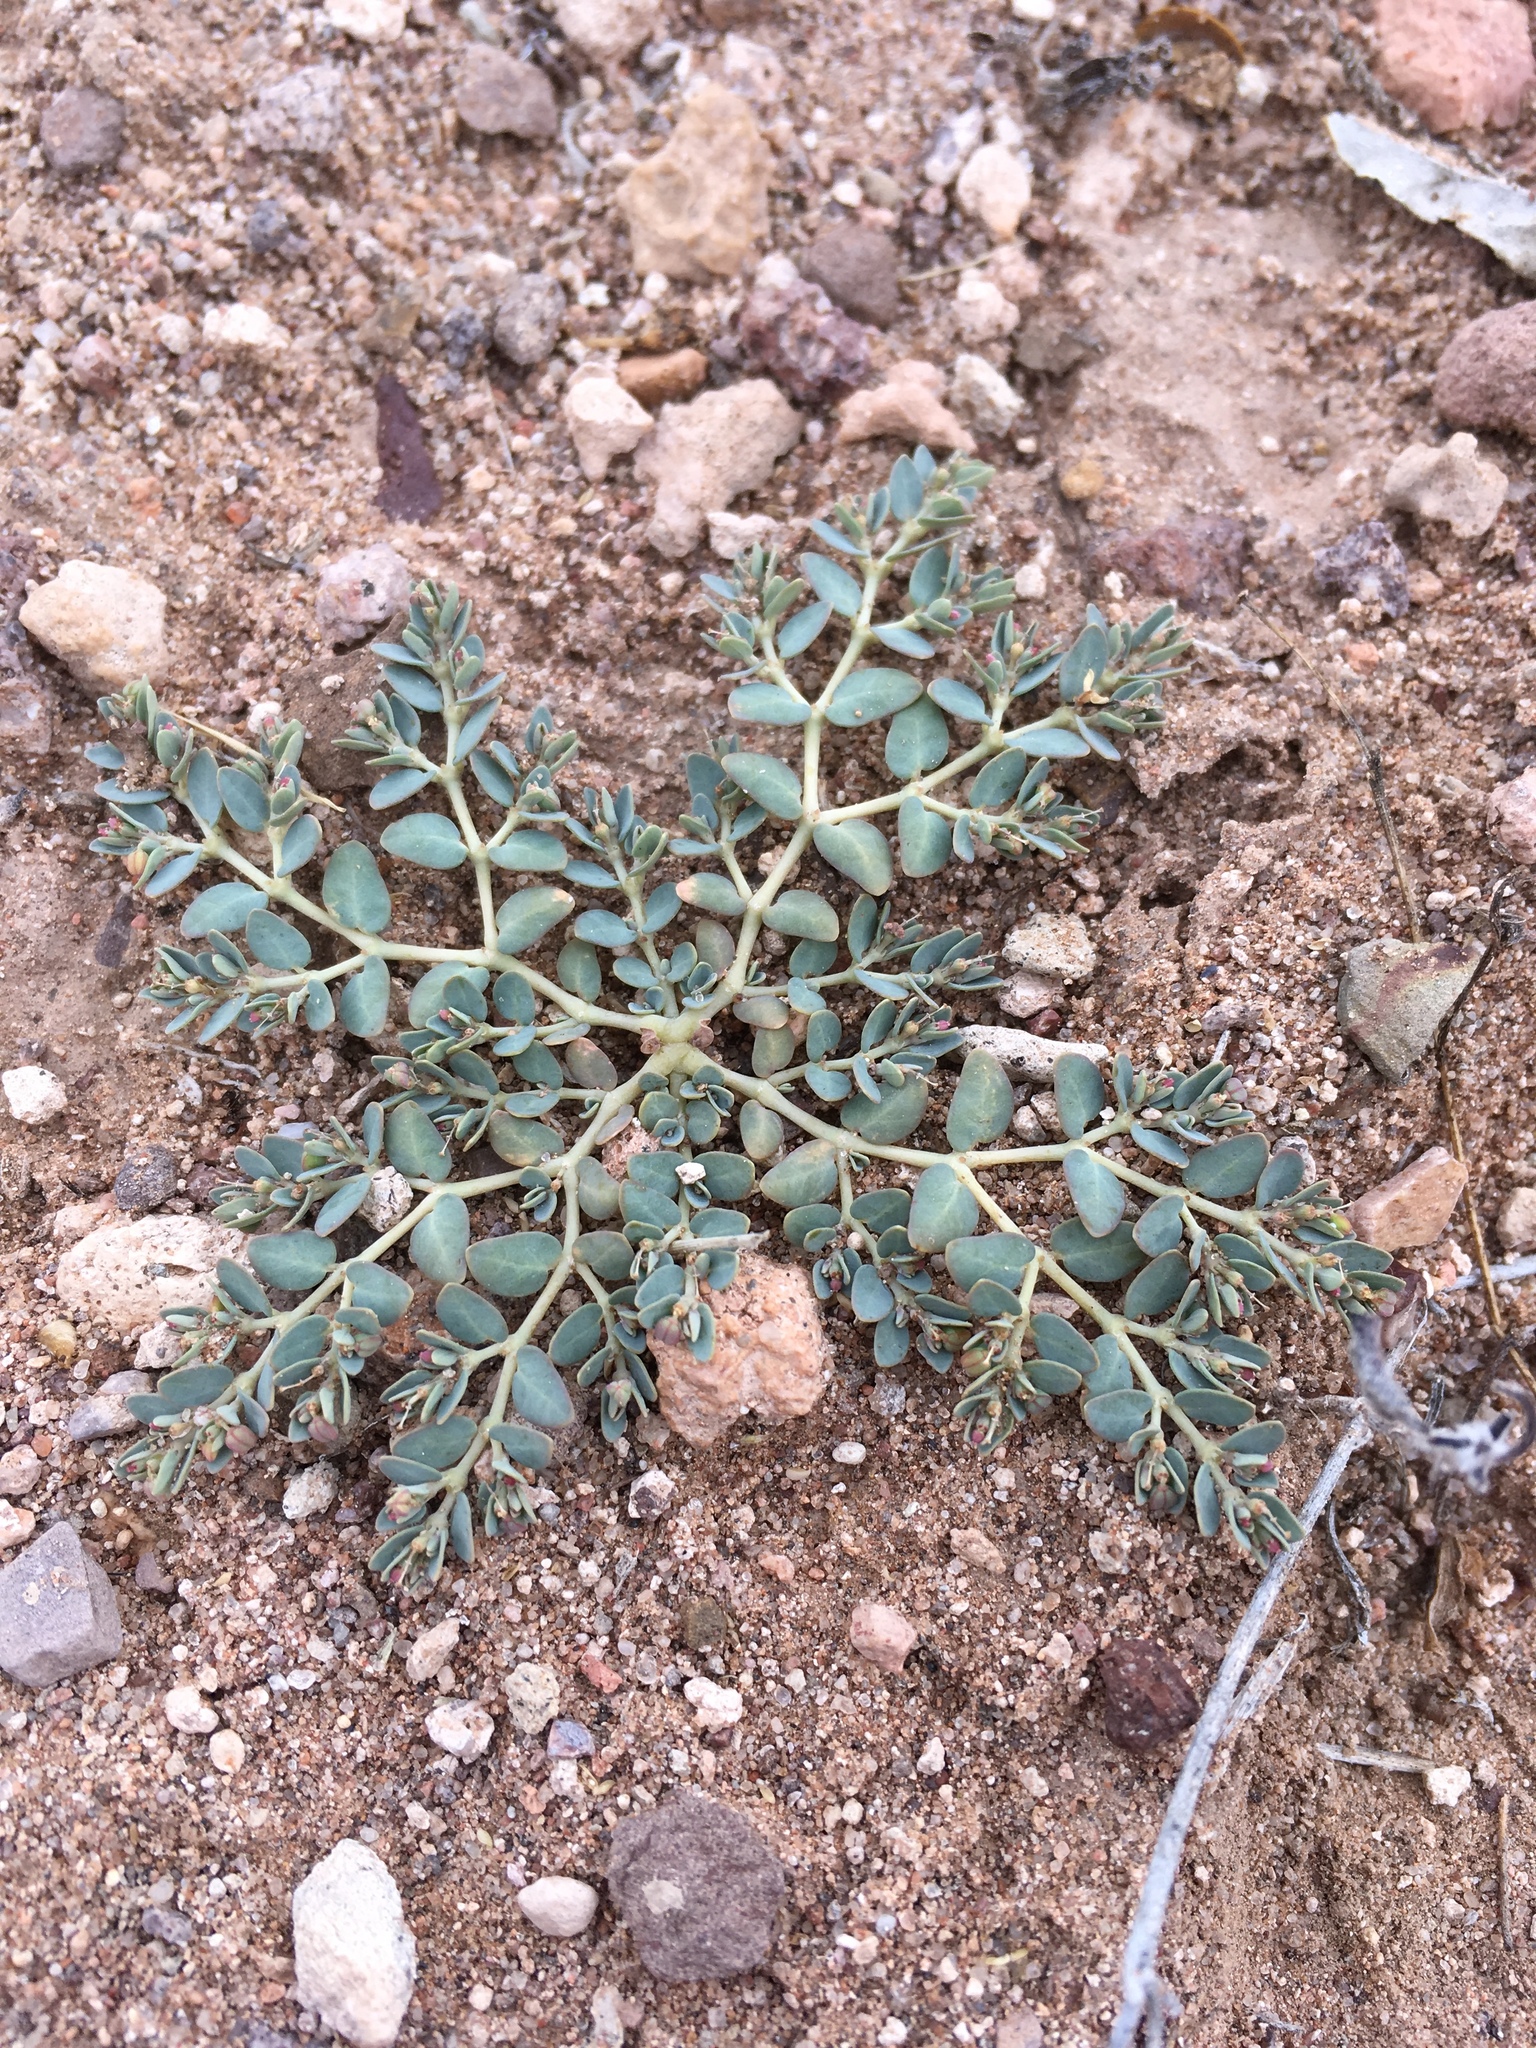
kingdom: Plantae
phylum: Tracheophyta
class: Magnoliopsida
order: Malpighiales
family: Euphorbiaceae
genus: Euphorbia
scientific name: Euphorbia micromera
